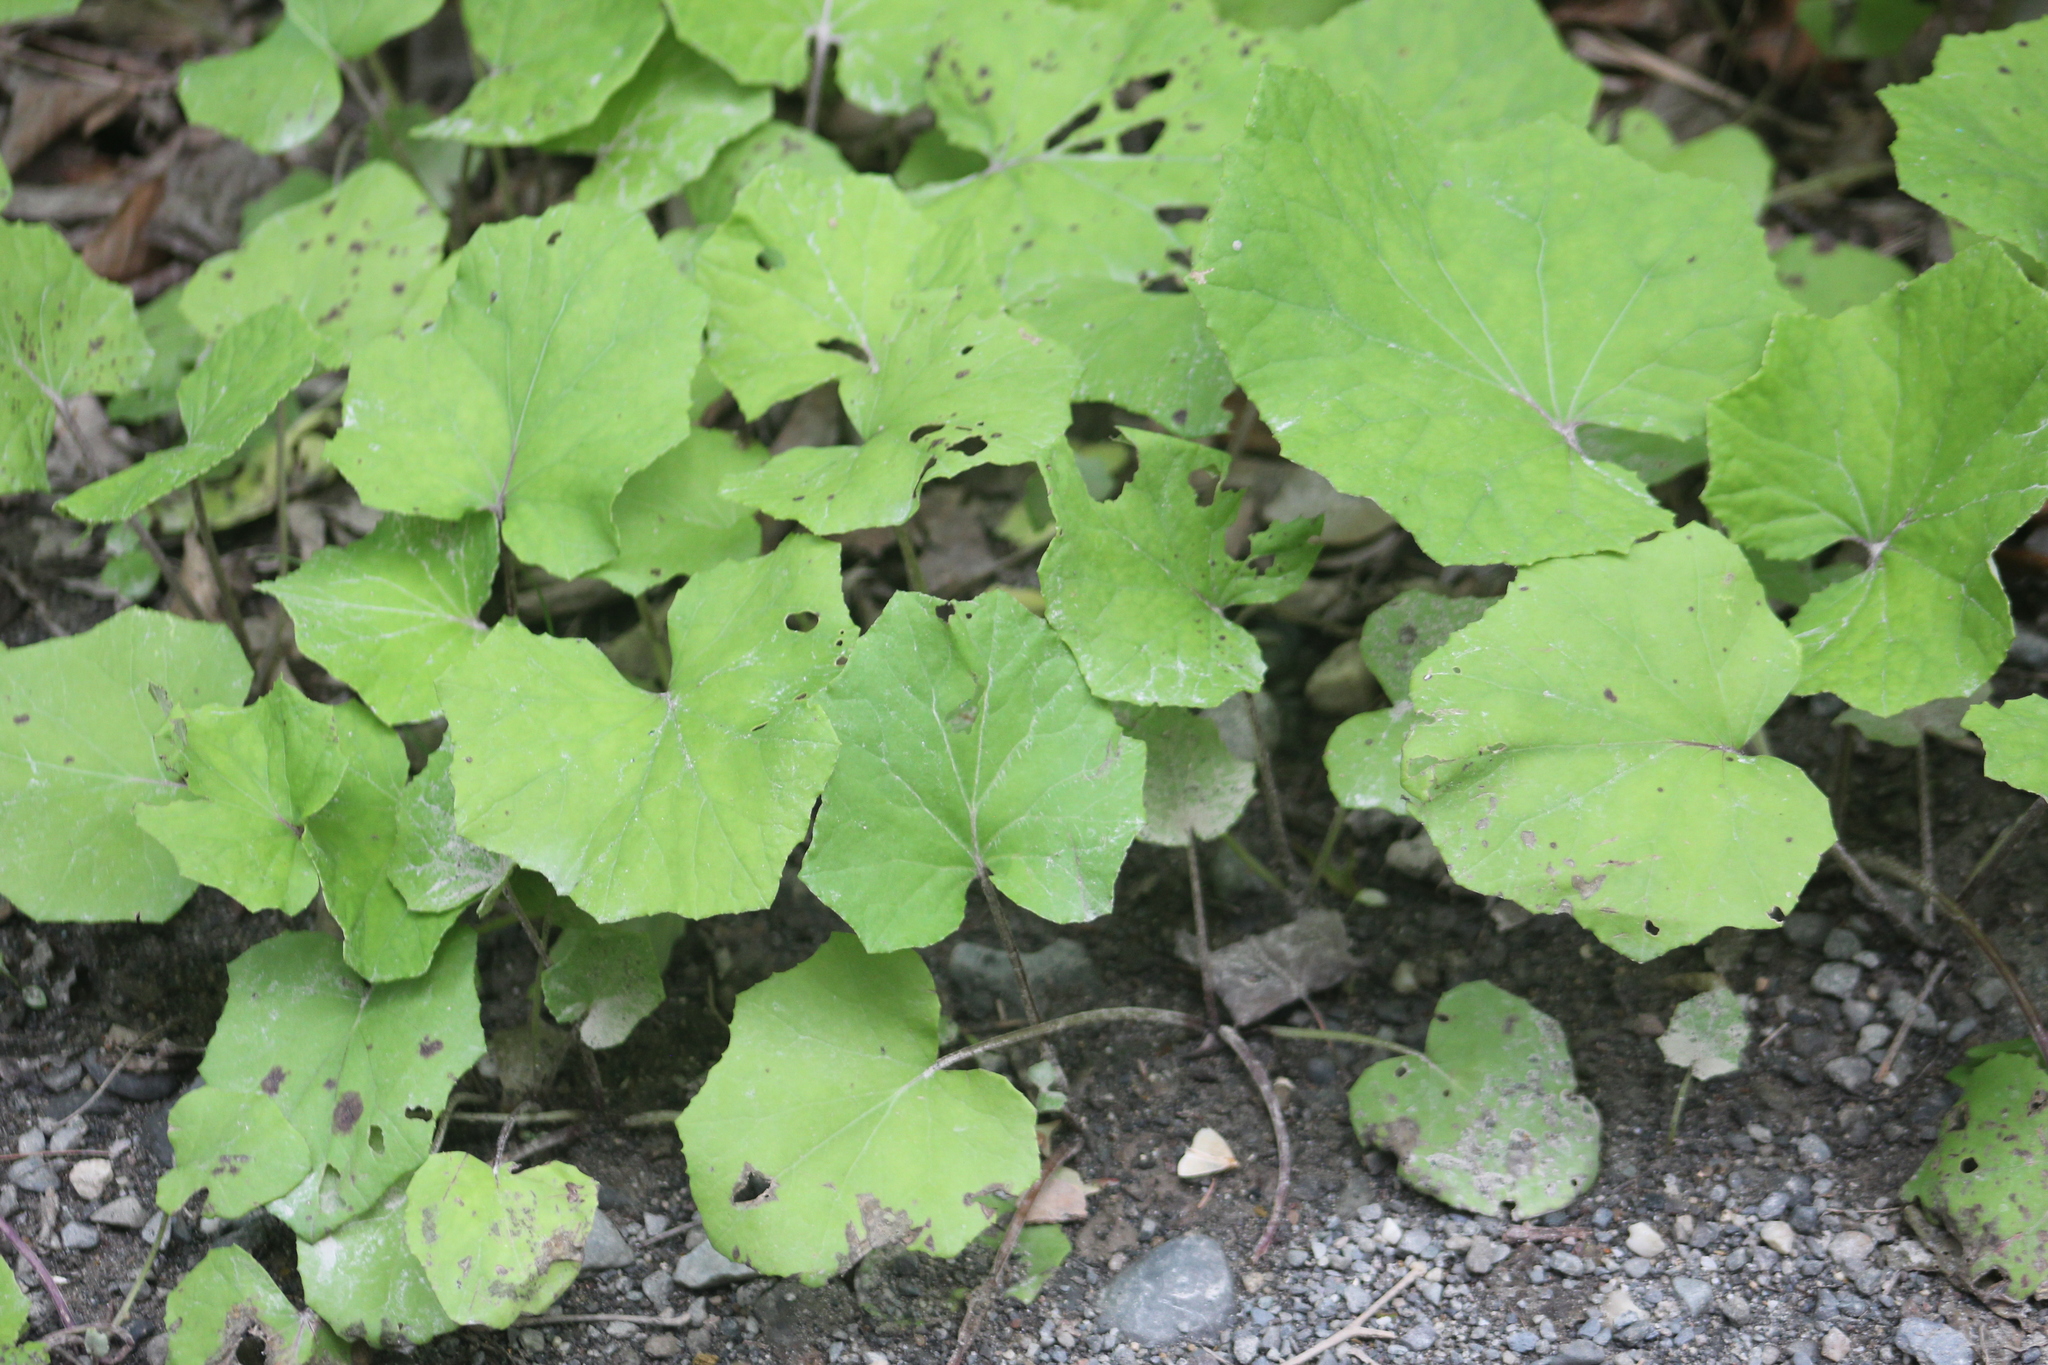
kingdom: Plantae
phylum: Tracheophyta
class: Magnoliopsida
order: Asterales
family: Asteraceae
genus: Tussilago
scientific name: Tussilago farfara
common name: Coltsfoot
